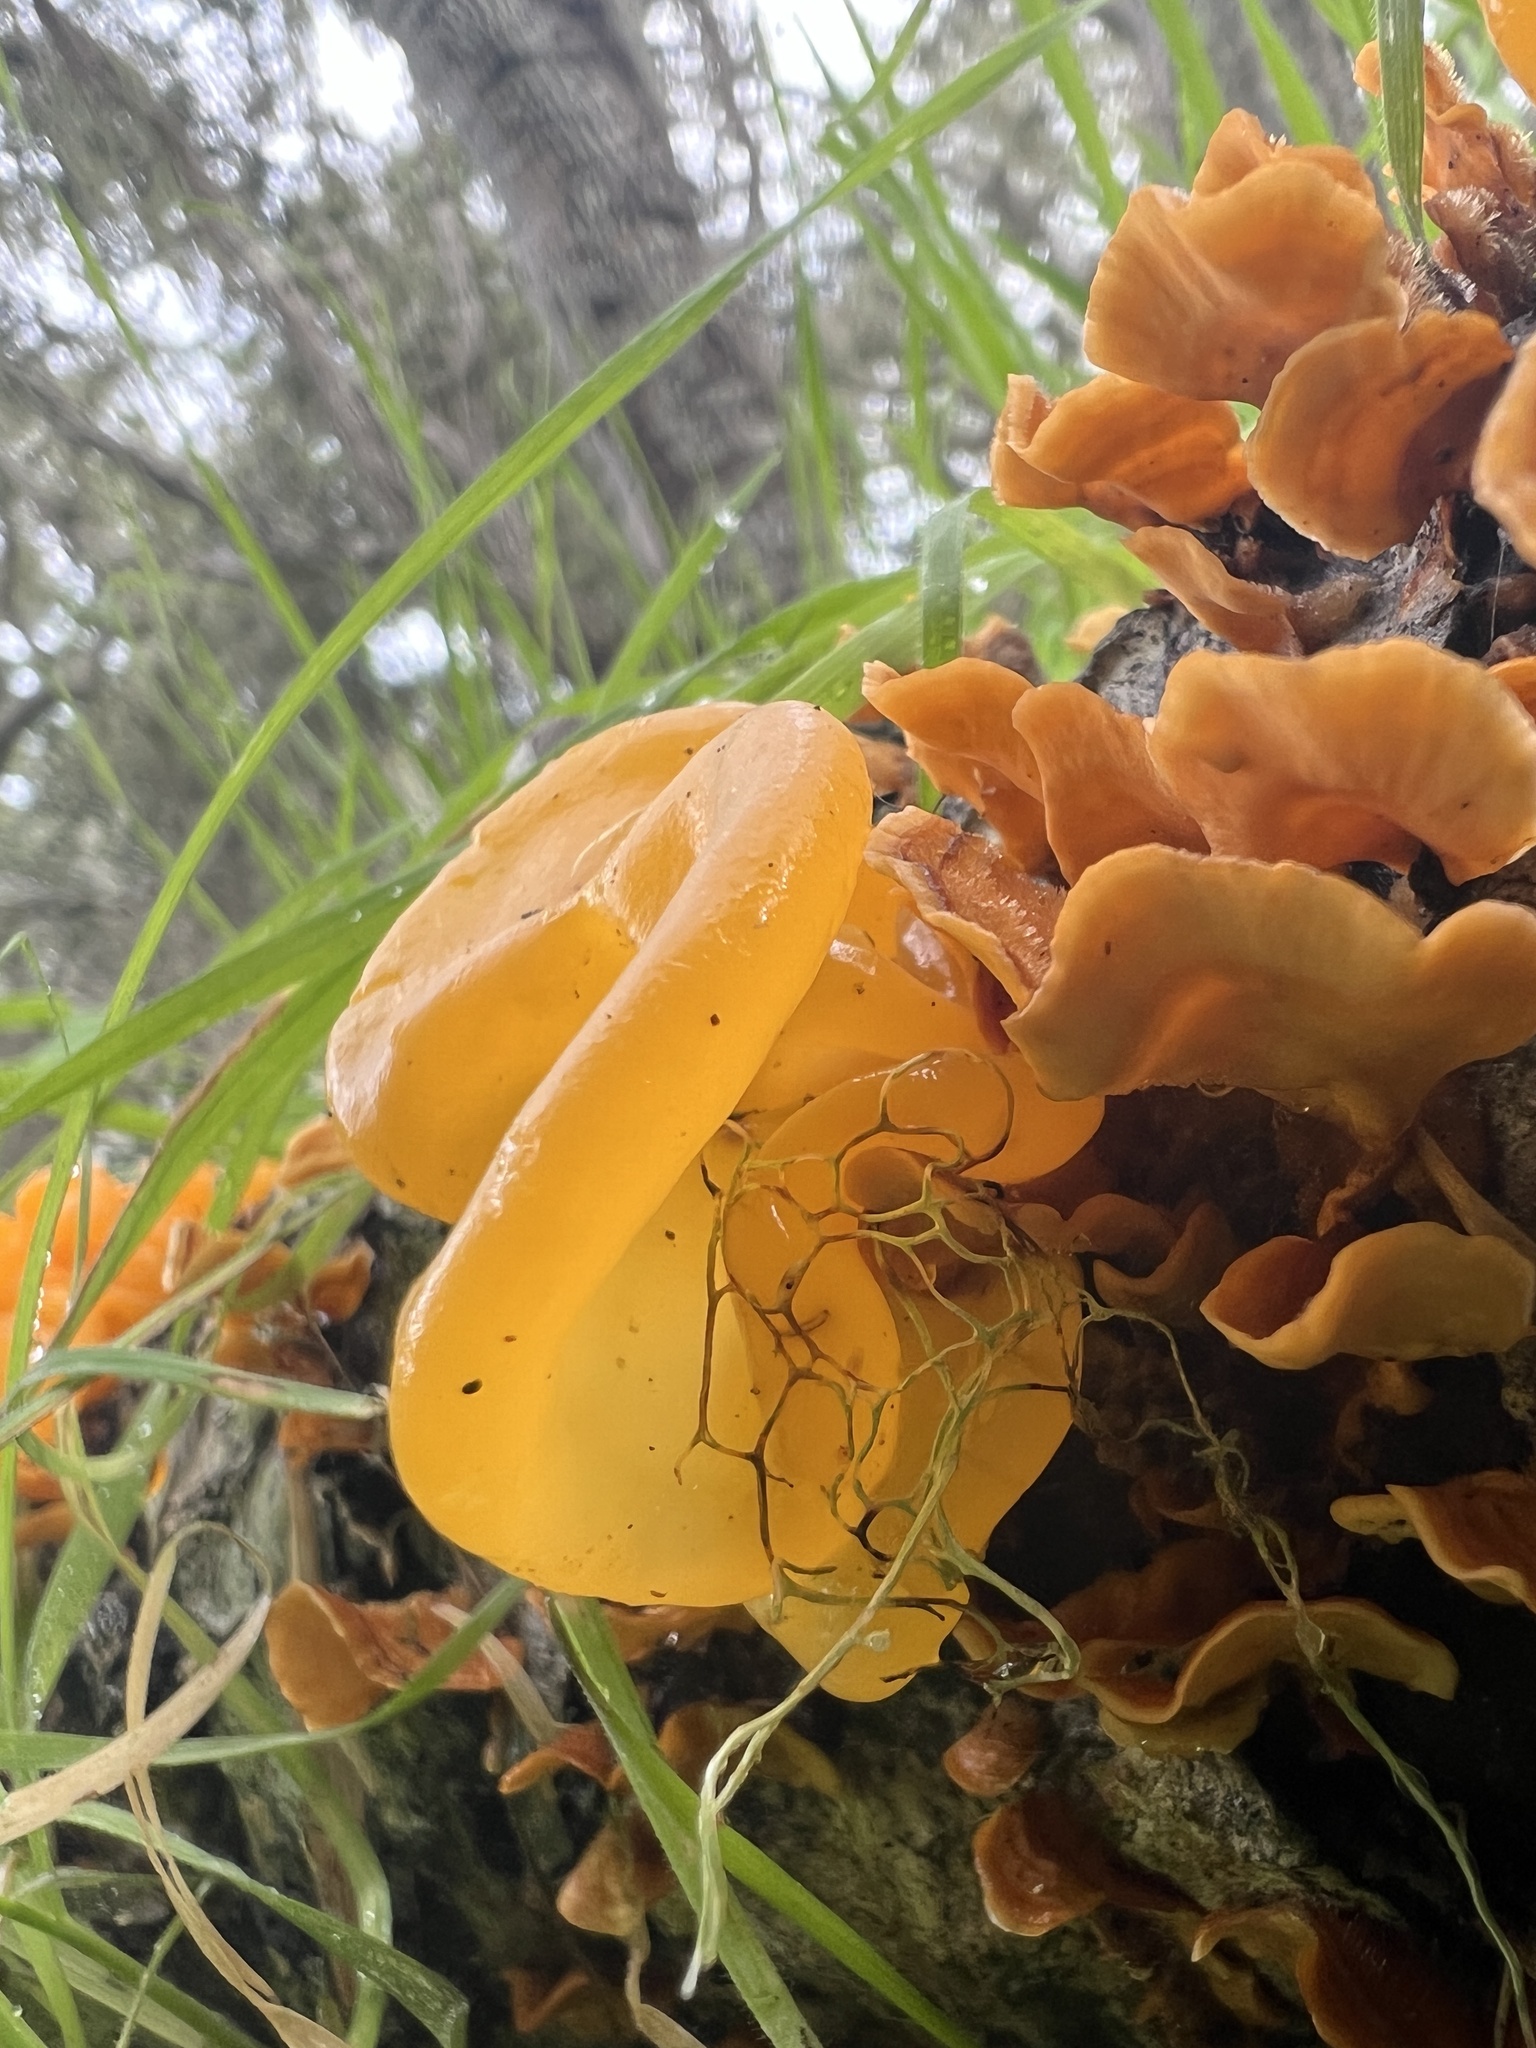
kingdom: Fungi
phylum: Basidiomycota
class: Tremellomycetes
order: Tremellales
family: Naemateliaceae
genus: Naematelia
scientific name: Naematelia aurantia
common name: Golden ear
